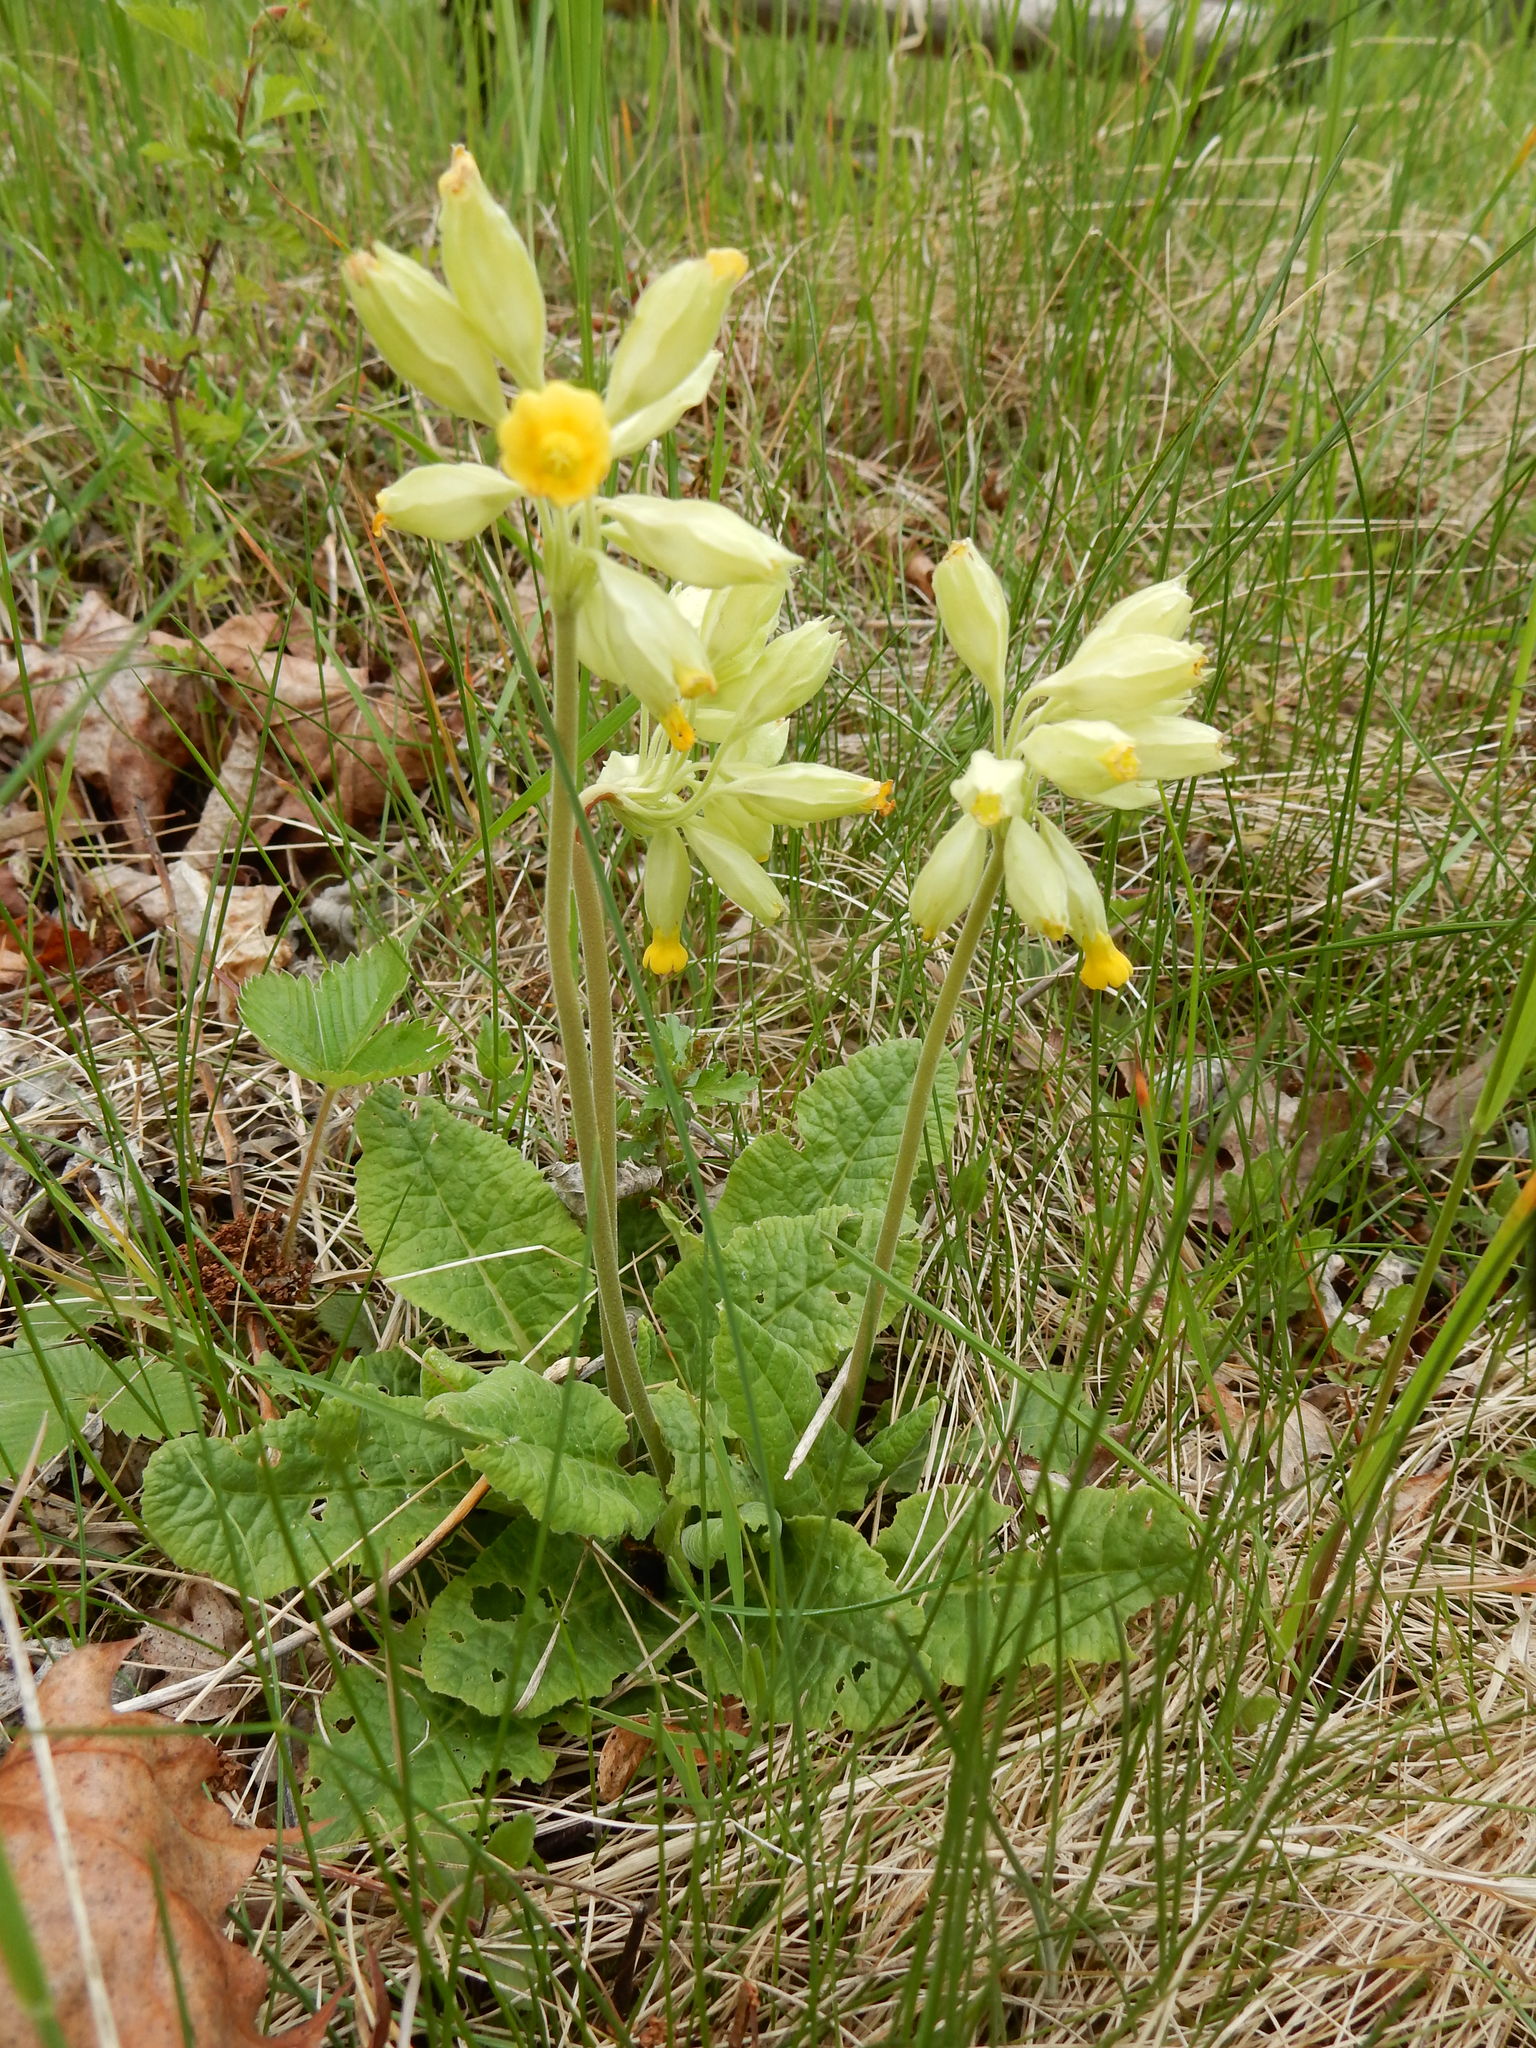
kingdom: Plantae
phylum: Tracheophyta
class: Magnoliopsida
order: Ericales
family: Primulaceae
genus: Primula
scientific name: Primula veris
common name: Cowslip
